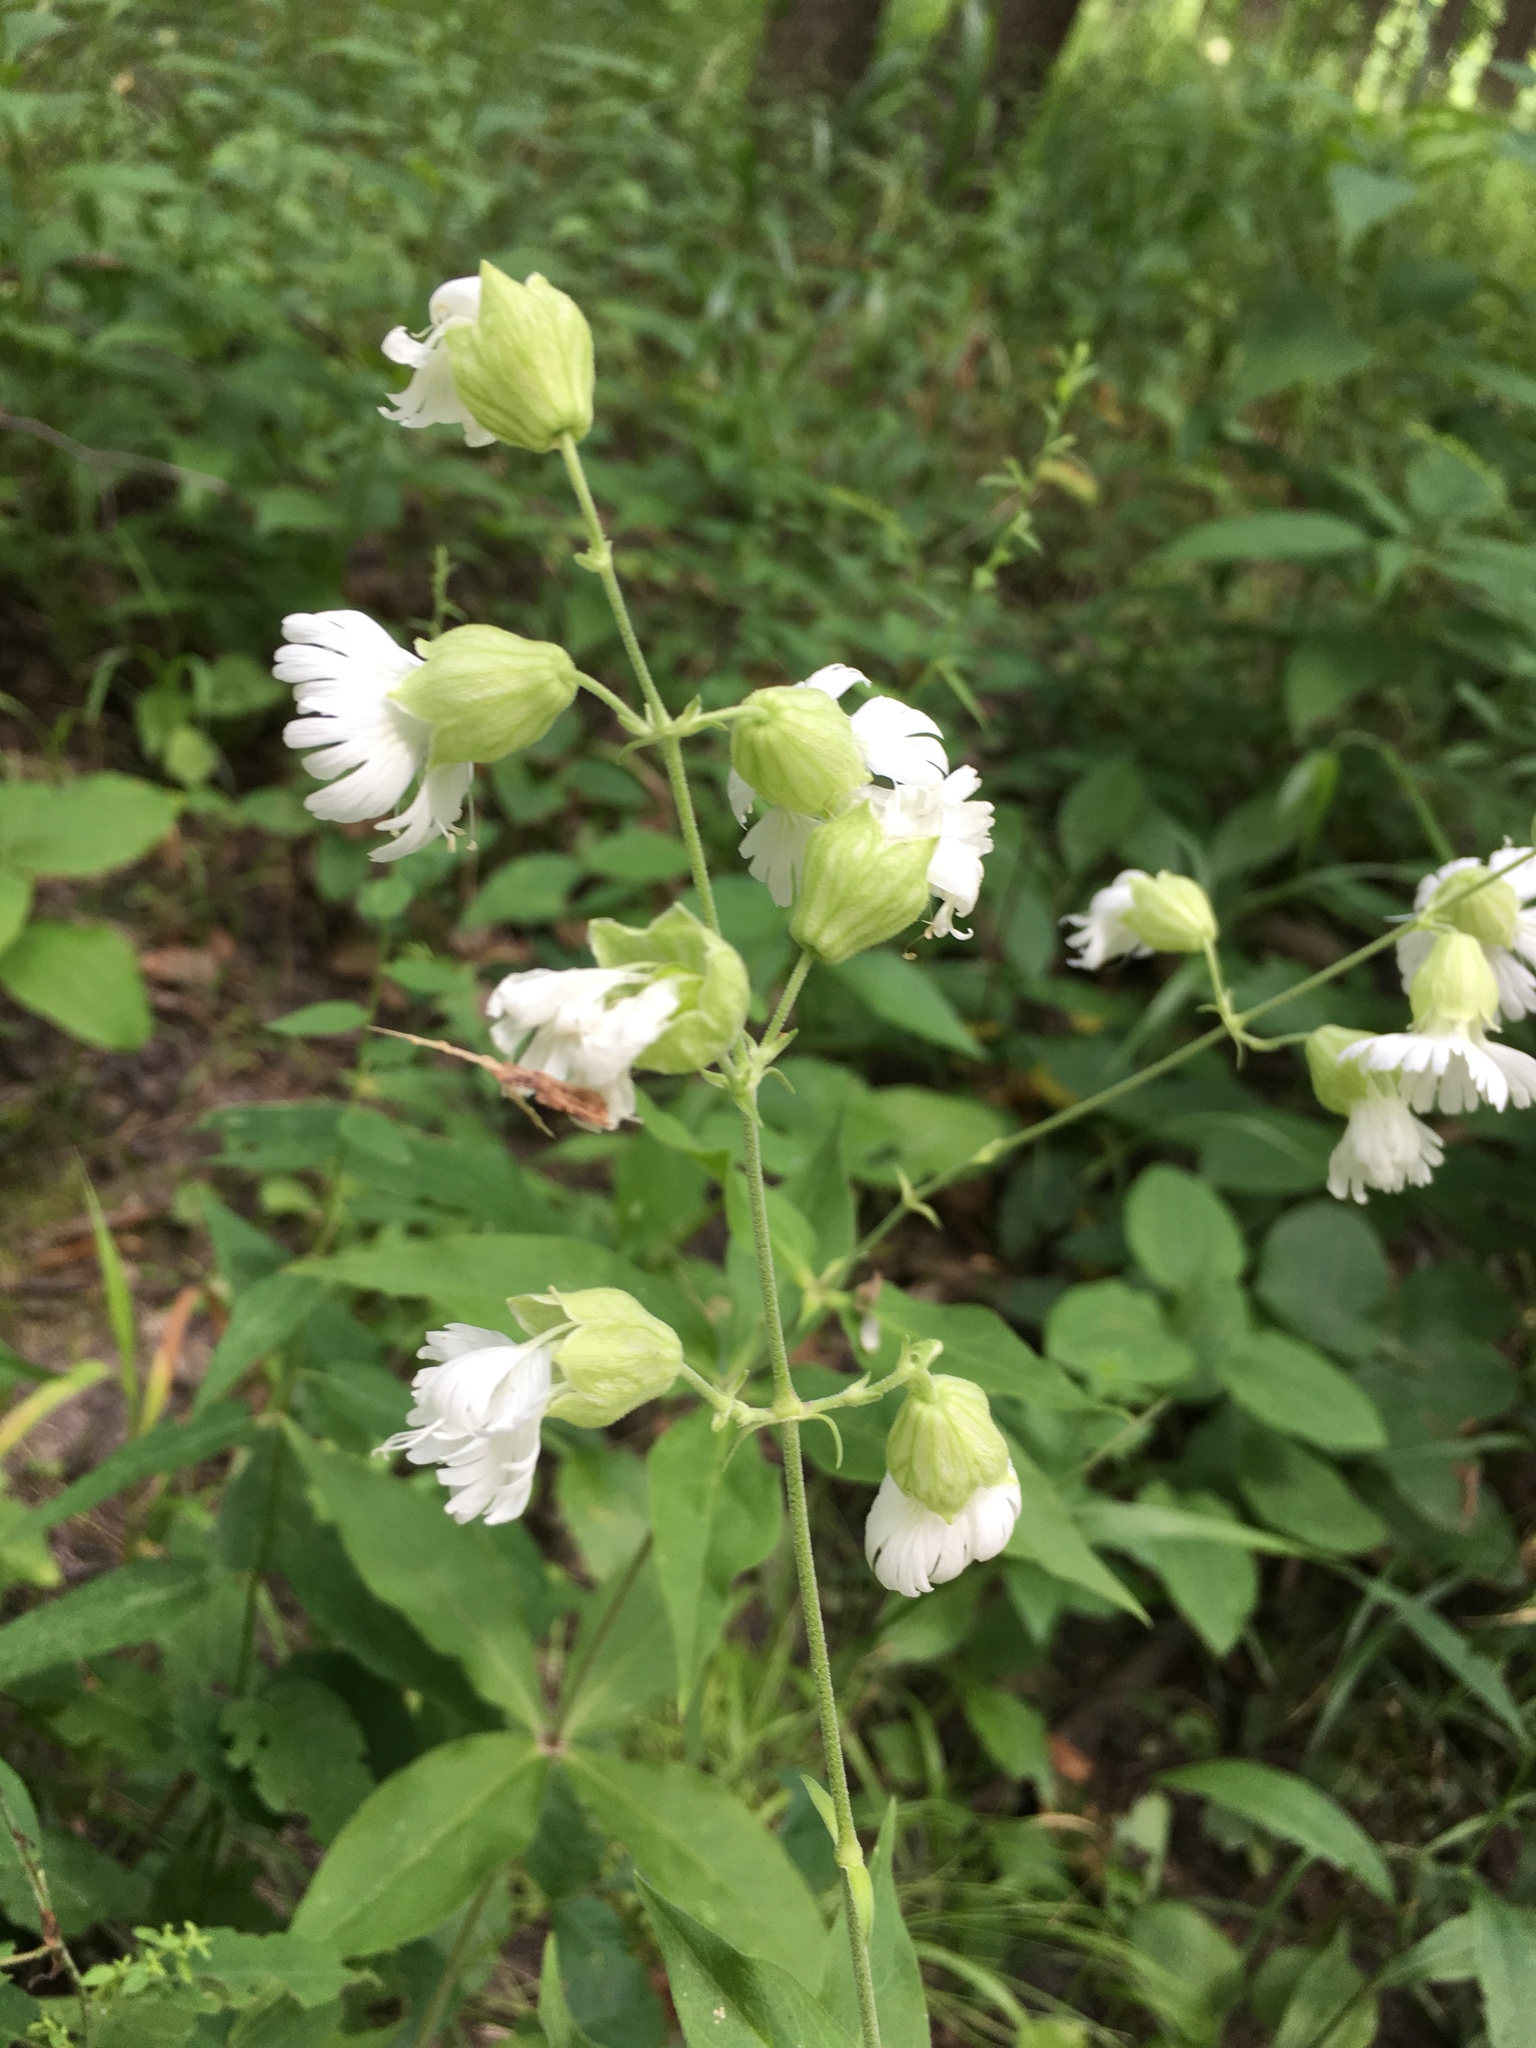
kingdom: Plantae
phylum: Tracheophyta
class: Magnoliopsida
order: Caryophyllales
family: Caryophyllaceae
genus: Silene
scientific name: Silene stellata
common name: Starry campion
